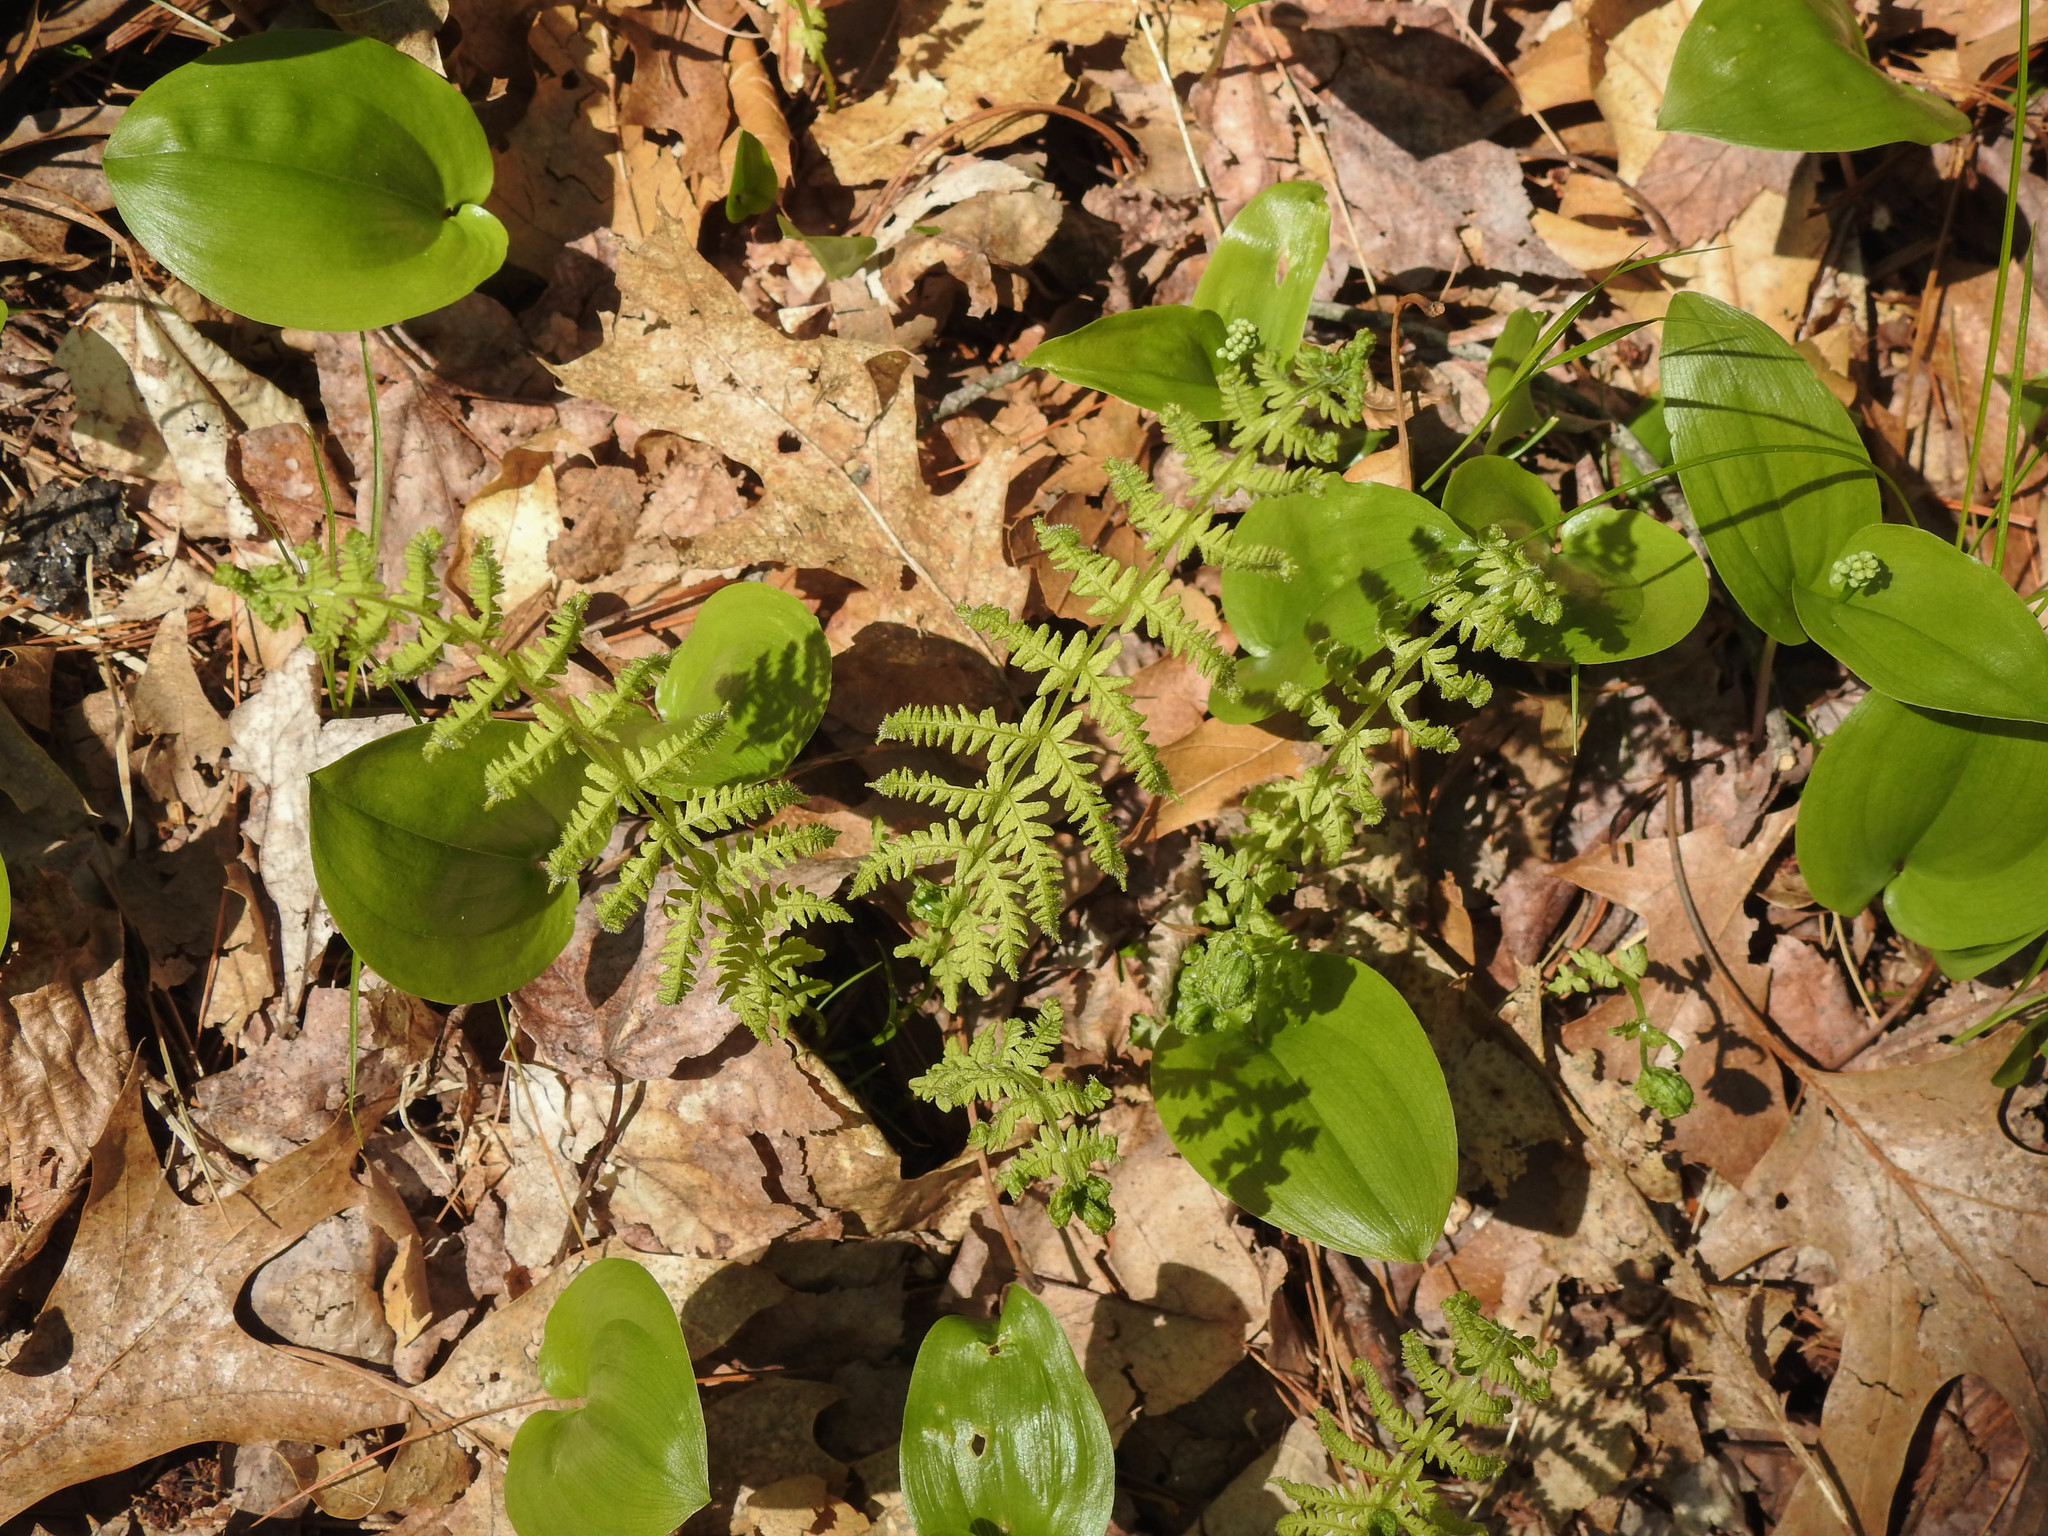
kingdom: Plantae
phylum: Tracheophyta
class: Polypodiopsida
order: Polypodiales
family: Thelypteridaceae
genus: Amauropelta
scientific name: Amauropelta noveboracensis
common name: New york fern
